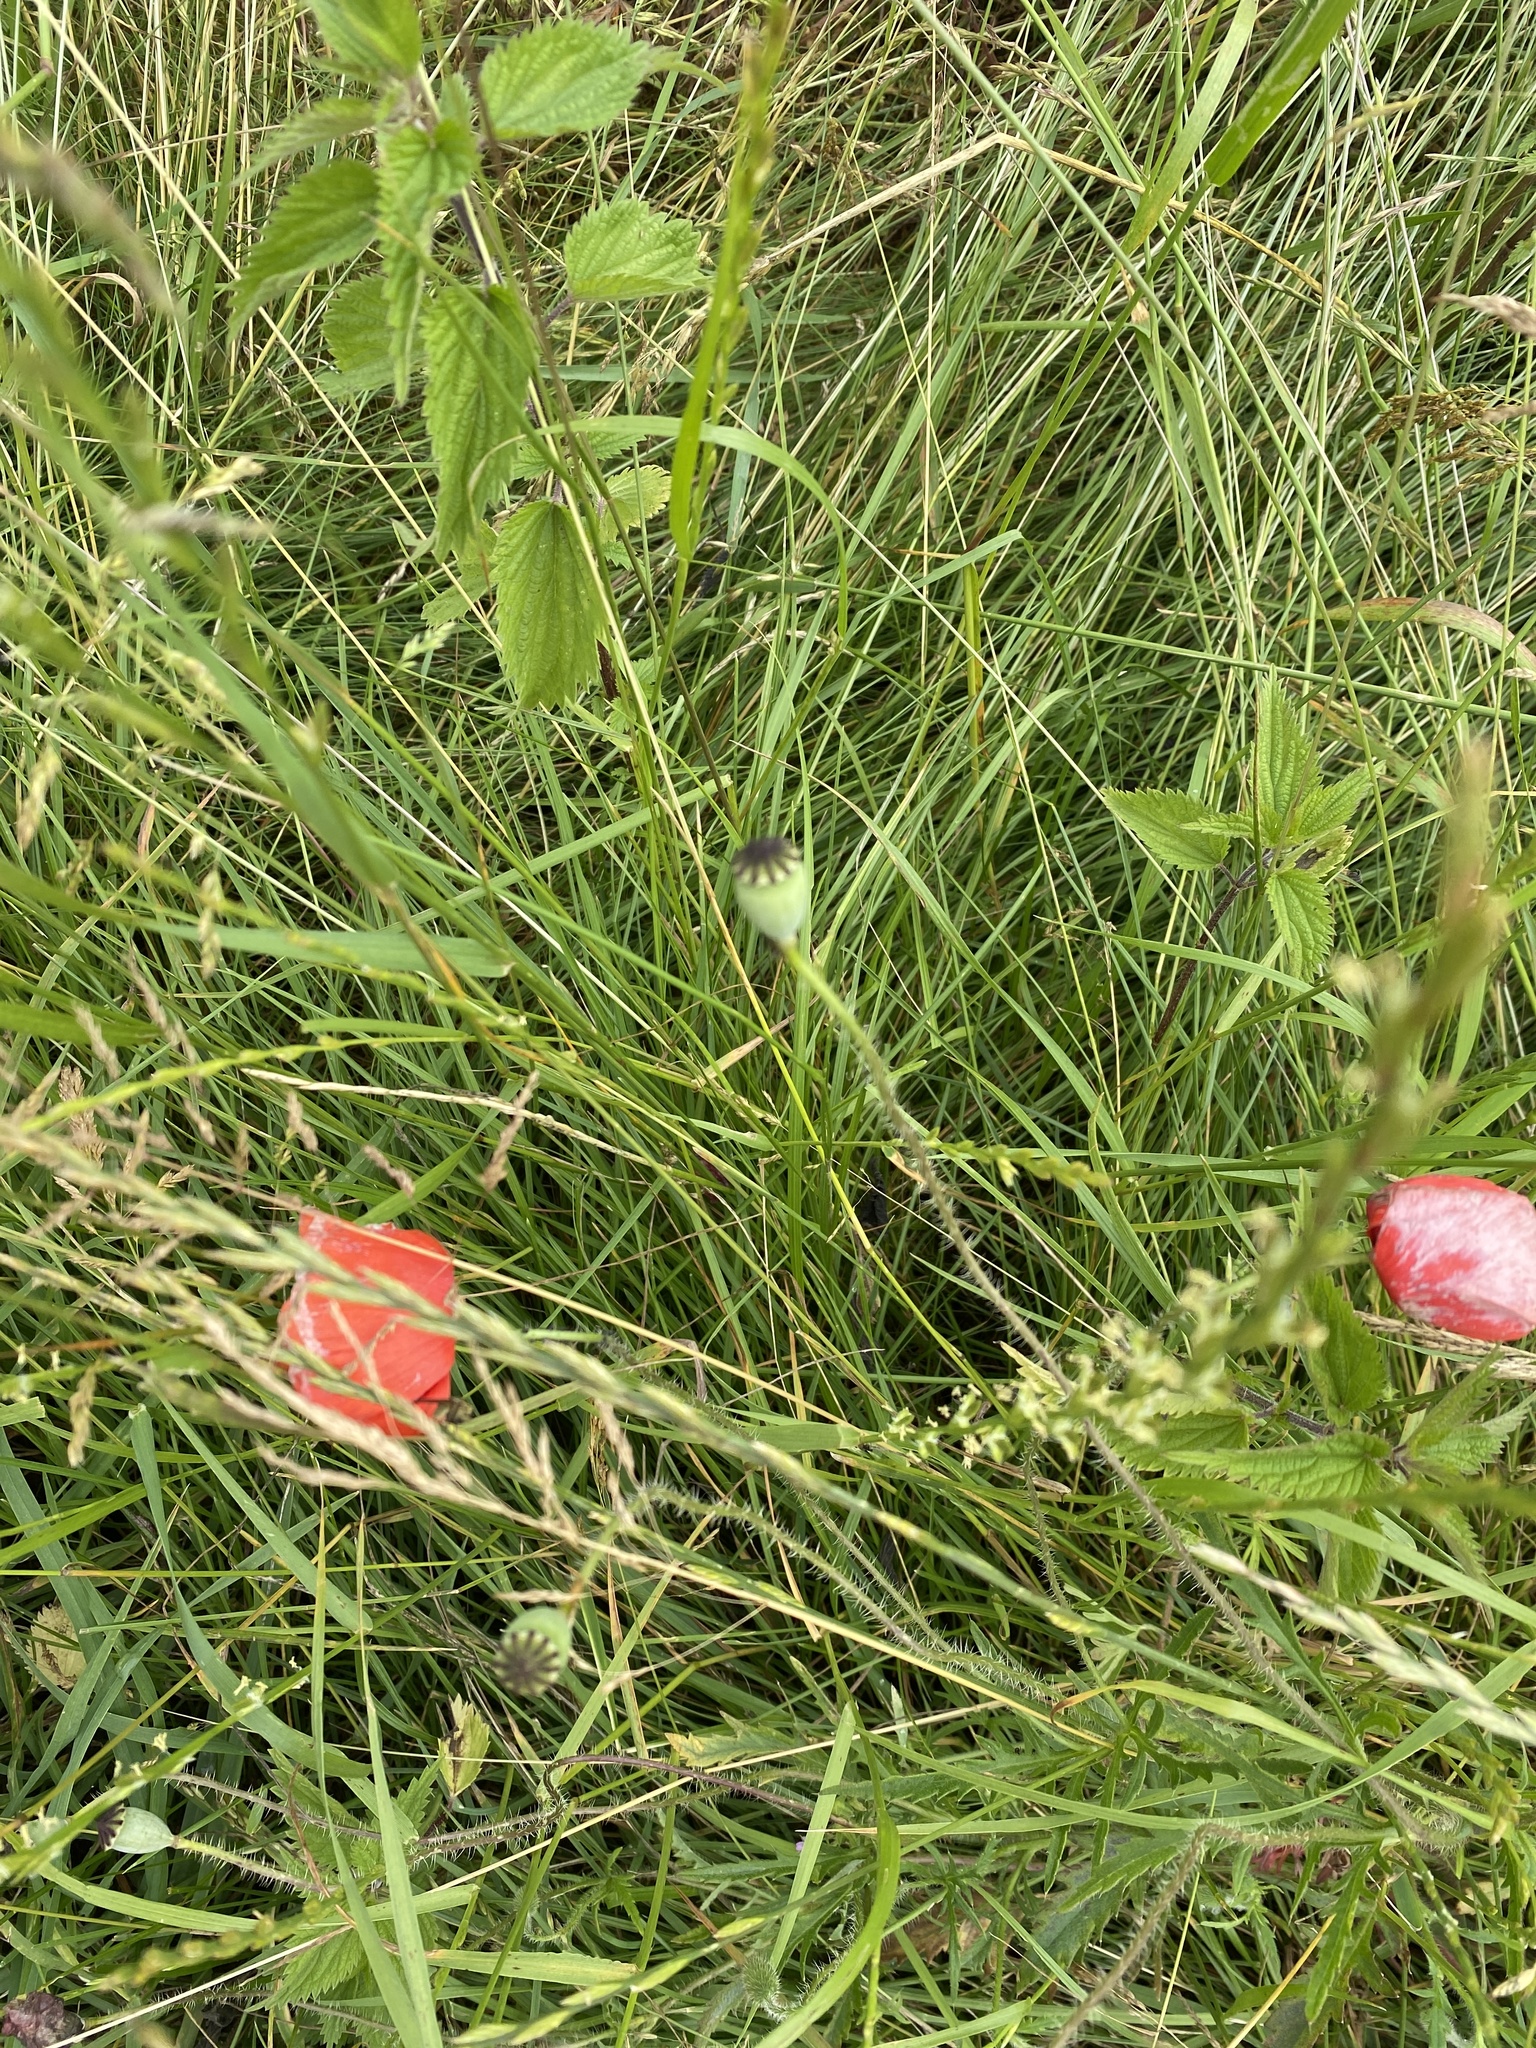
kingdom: Plantae
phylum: Tracheophyta
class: Magnoliopsida
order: Ranunculales
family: Papaveraceae
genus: Papaver
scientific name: Papaver rhoeas
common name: Corn poppy
